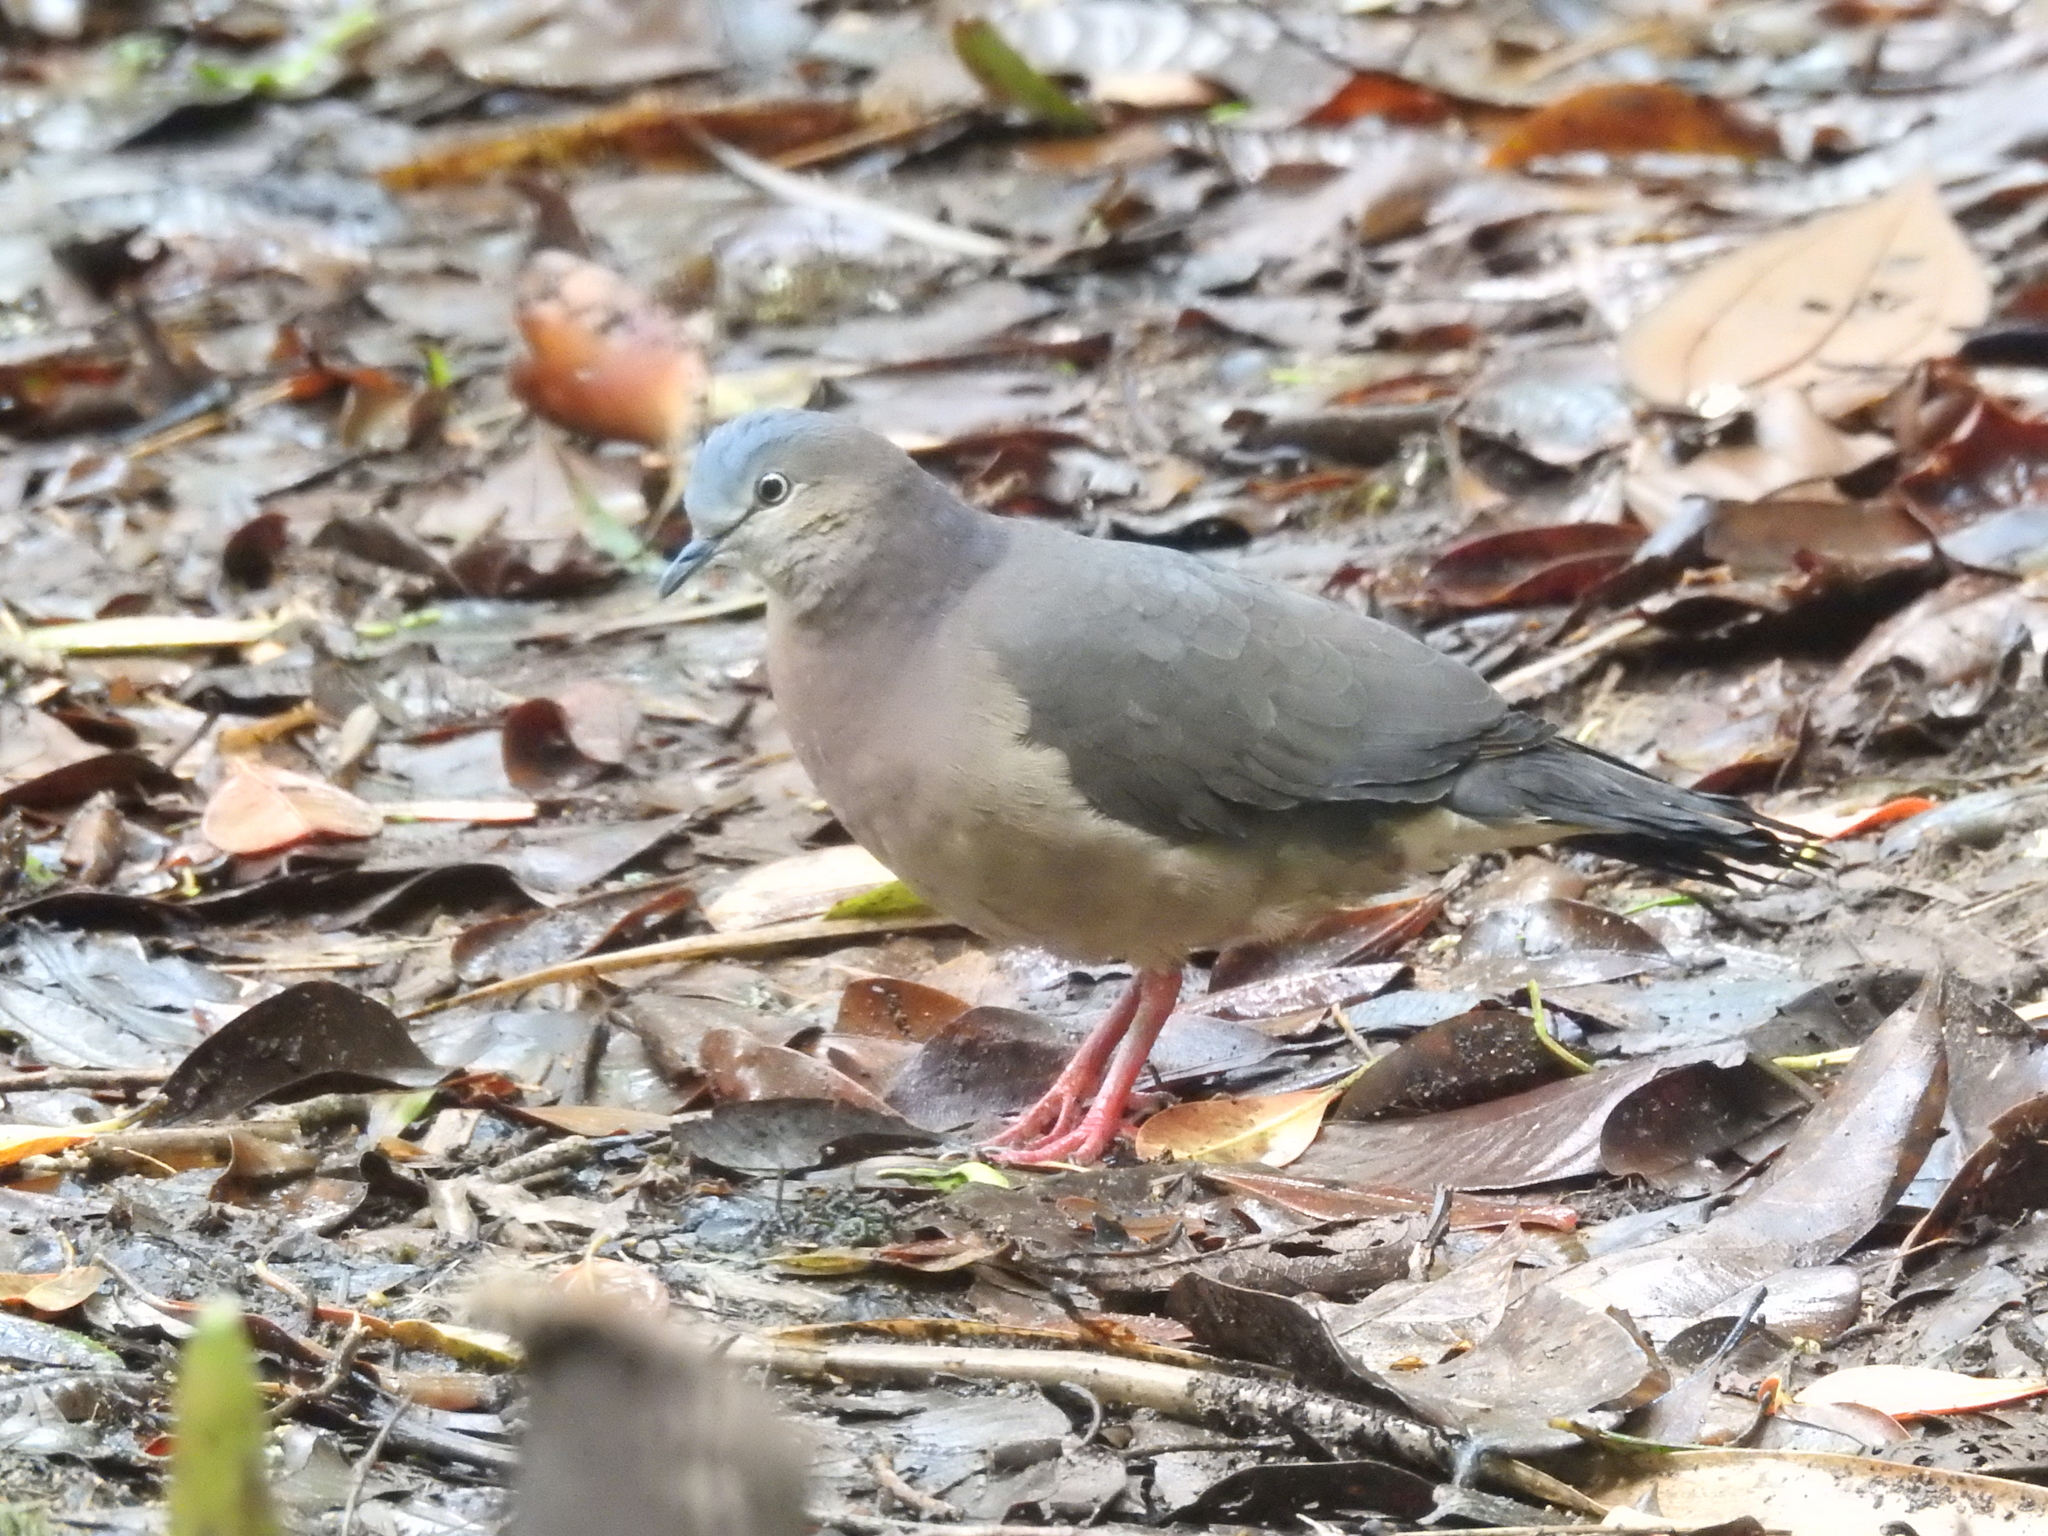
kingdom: Animalia
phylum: Chordata
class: Aves
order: Columbiformes
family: Columbidae
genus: Leptotila
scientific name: Leptotila conoveri
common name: Tolima dove
